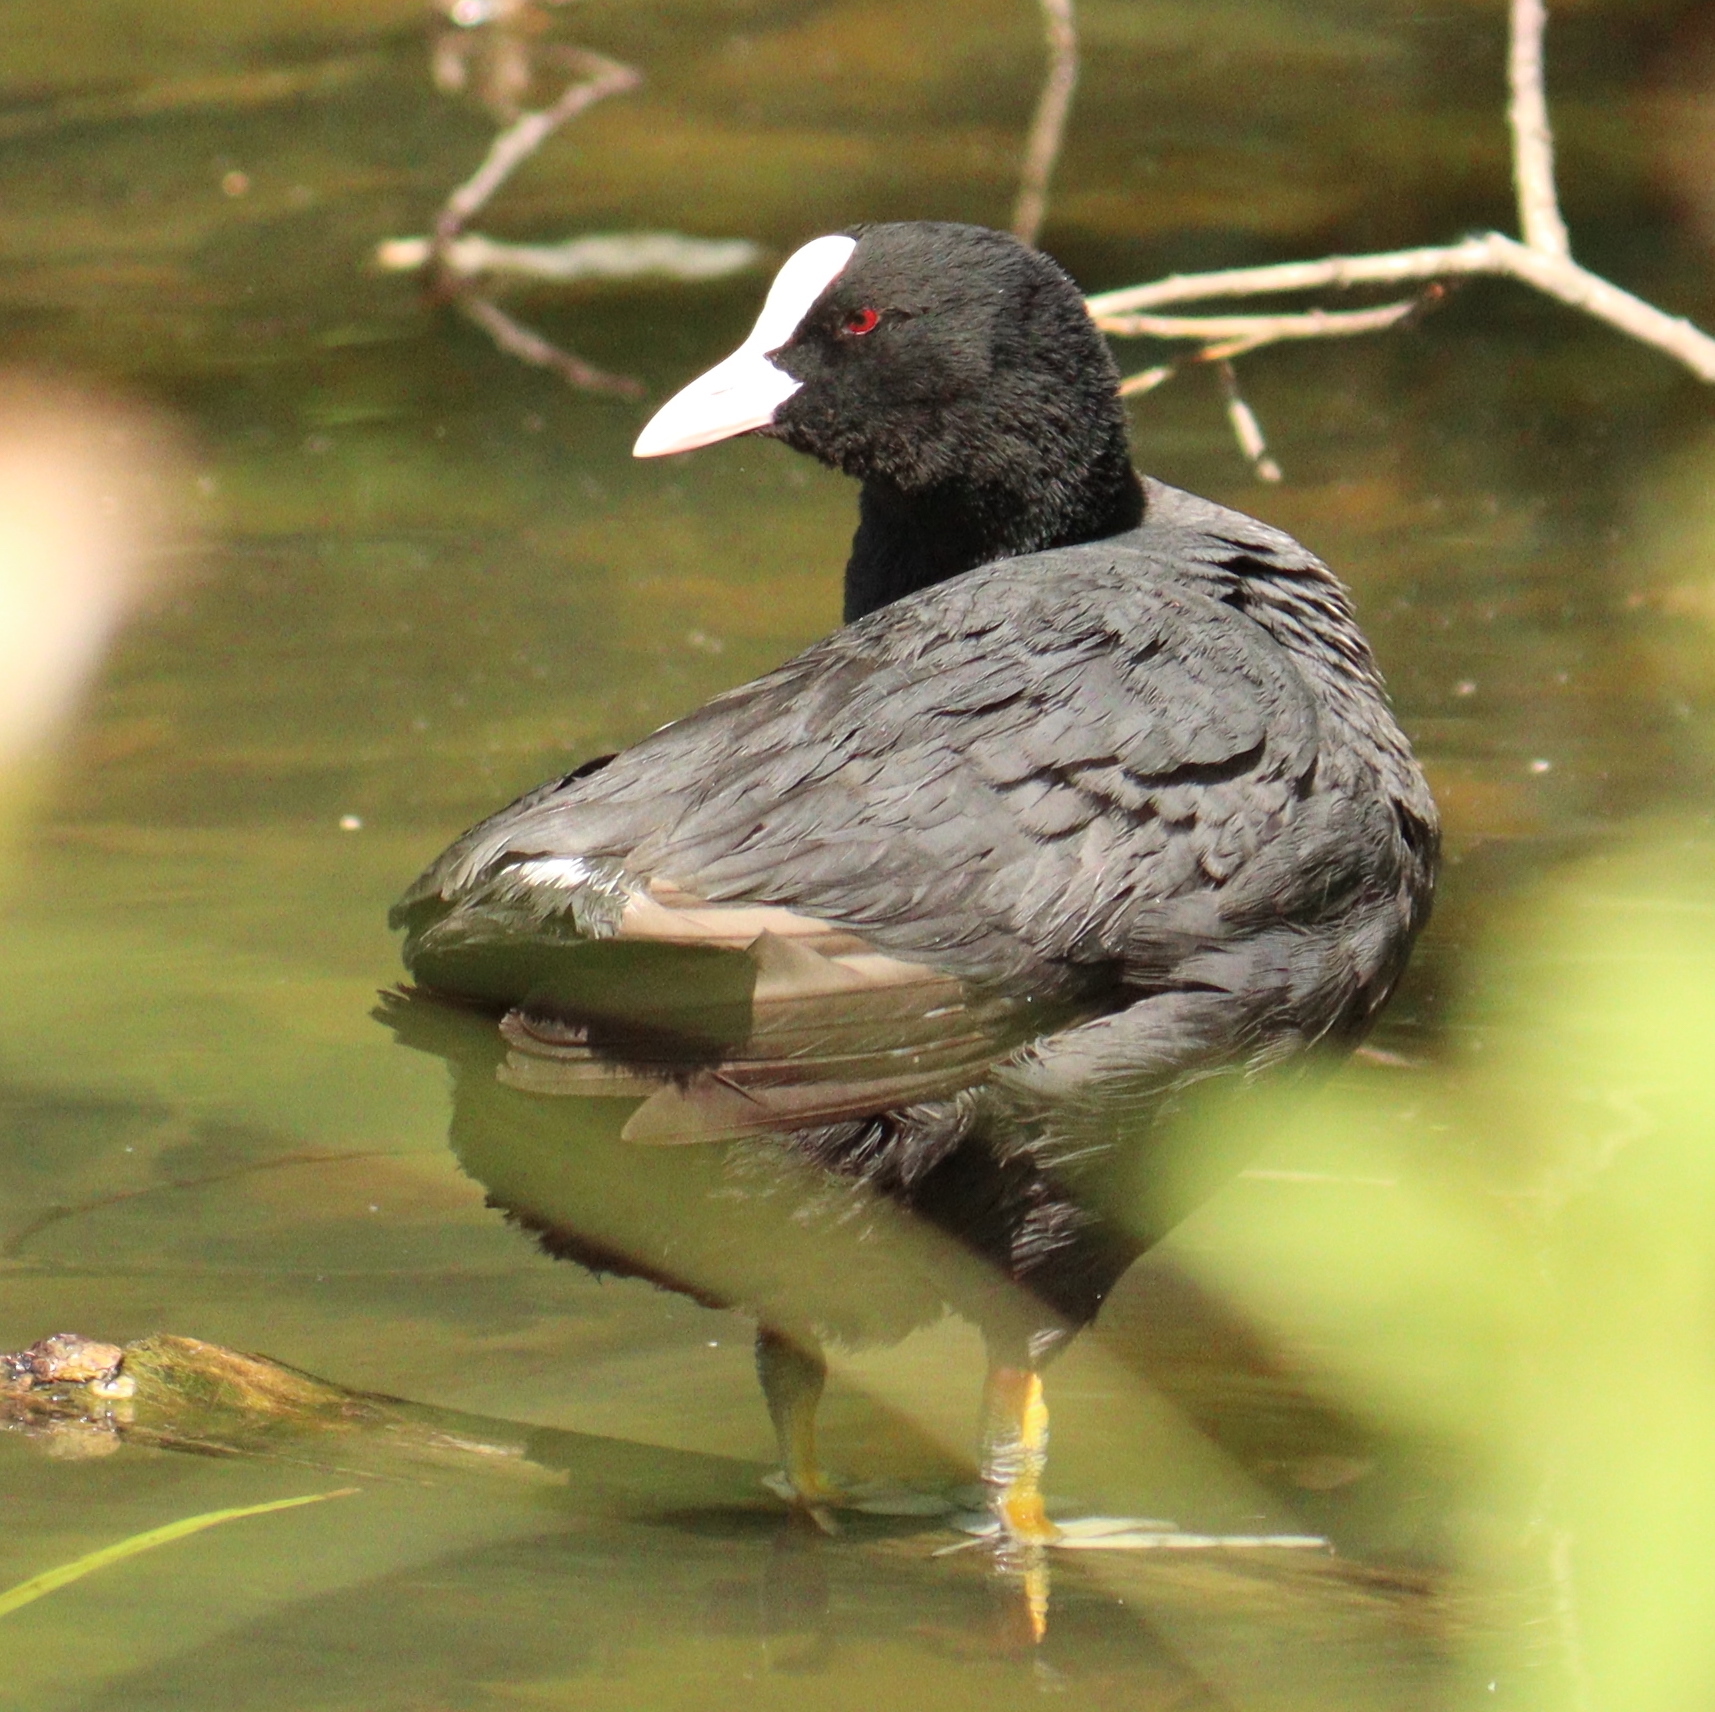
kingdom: Animalia
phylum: Chordata
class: Aves
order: Gruiformes
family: Rallidae
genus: Fulica
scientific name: Fulica atra
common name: Eurasian coot
